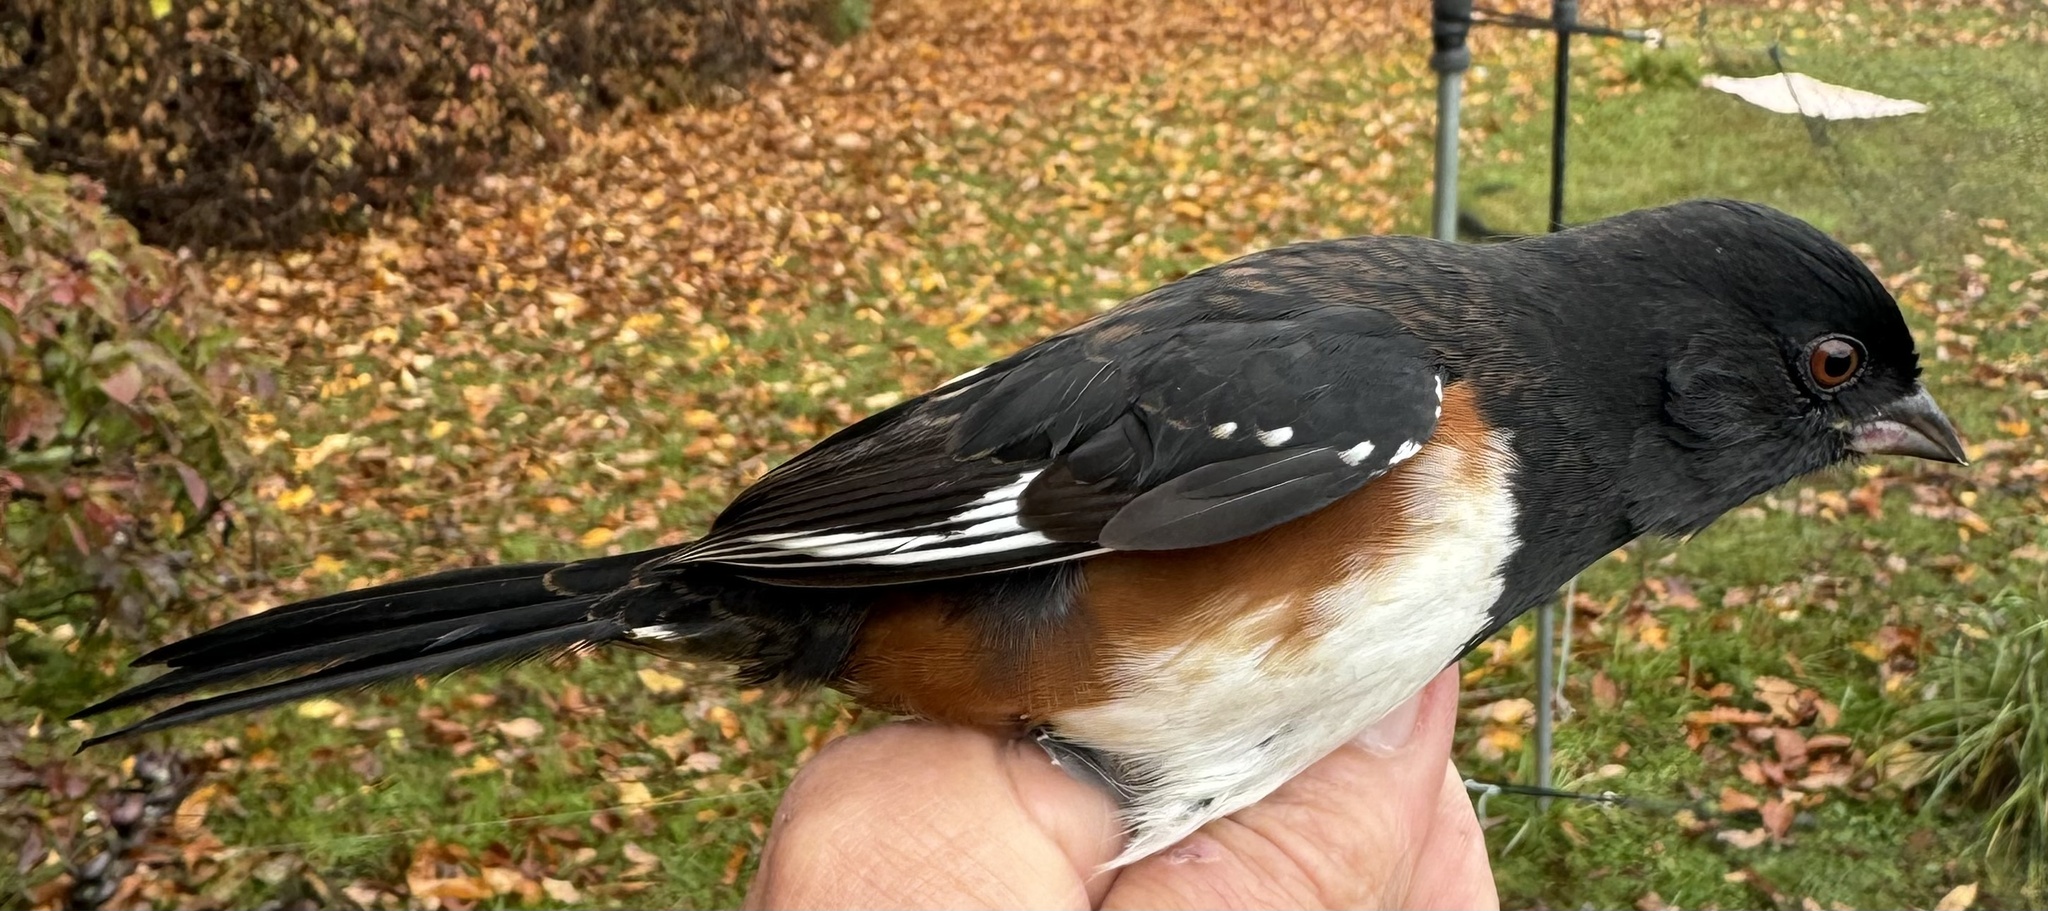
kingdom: Animalia
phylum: Chordata
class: Aves
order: Passeriformes
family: Passerellidae
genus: Pipilo
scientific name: Pipilo
